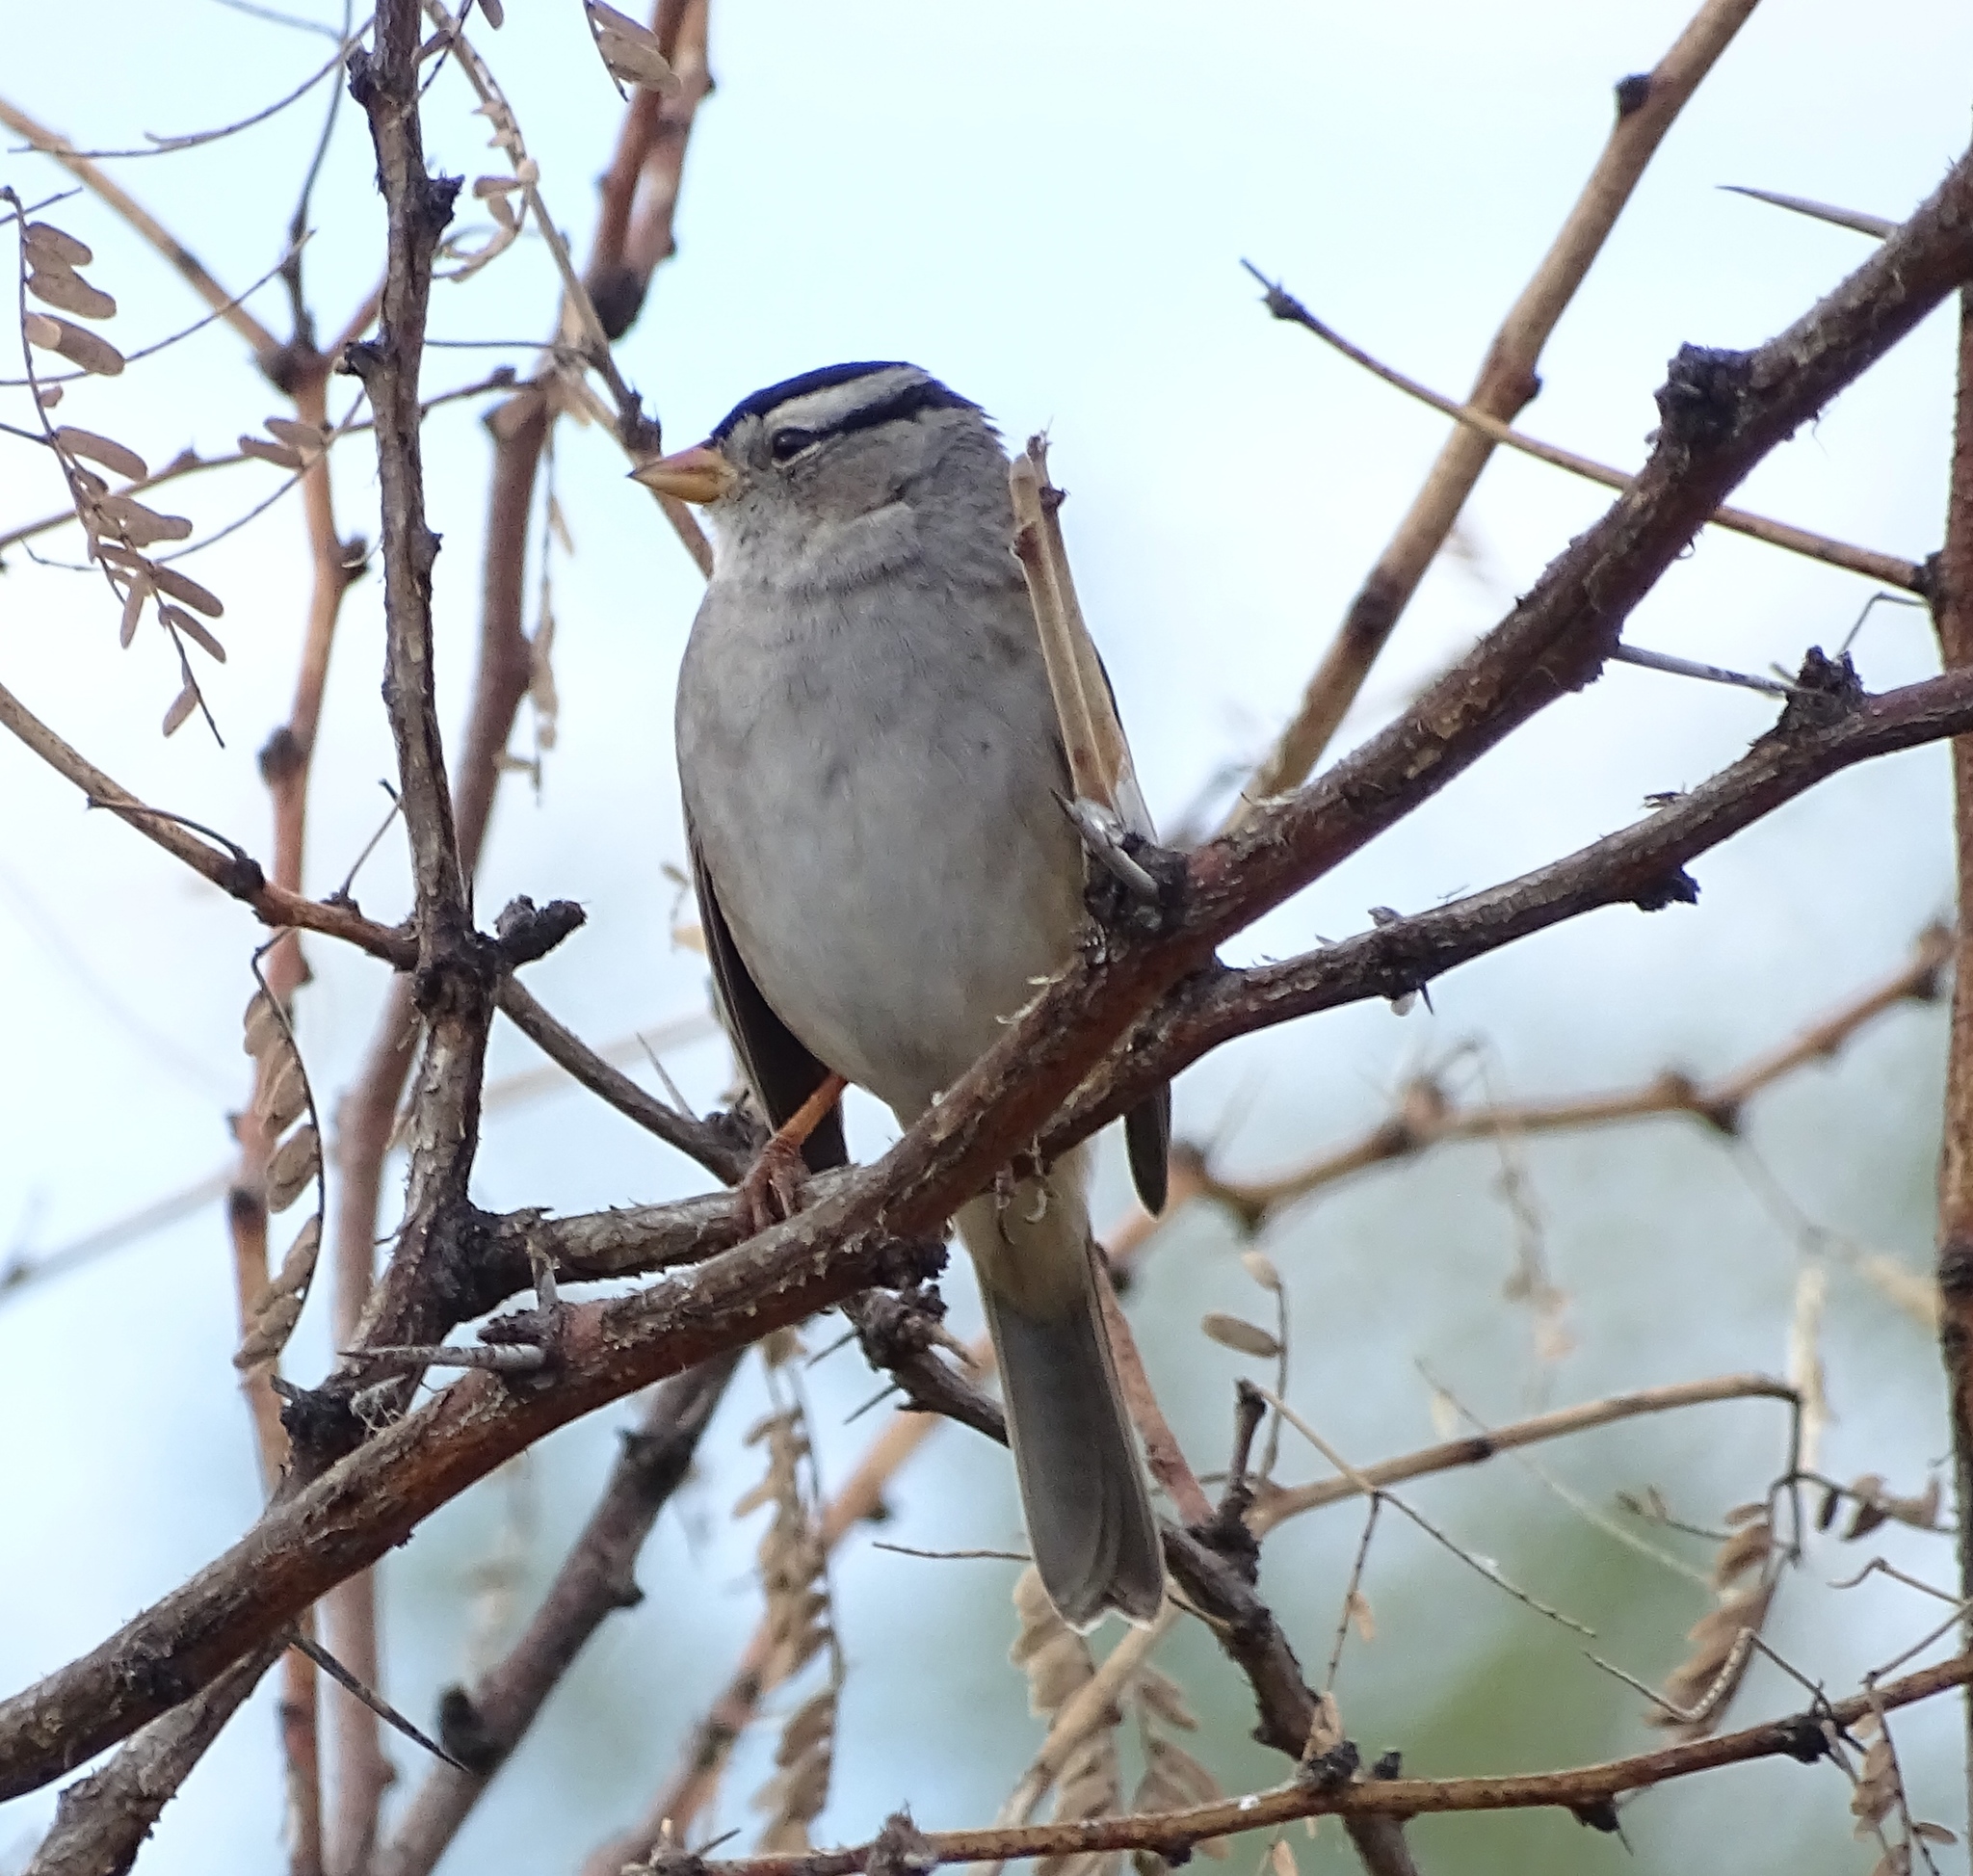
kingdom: Animalia
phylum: Chordata
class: Aves
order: Passeriformes
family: Passerellidae
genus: Zonotrichia
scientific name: Zonotrichia leucophrys
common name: White-crowned sparrow
